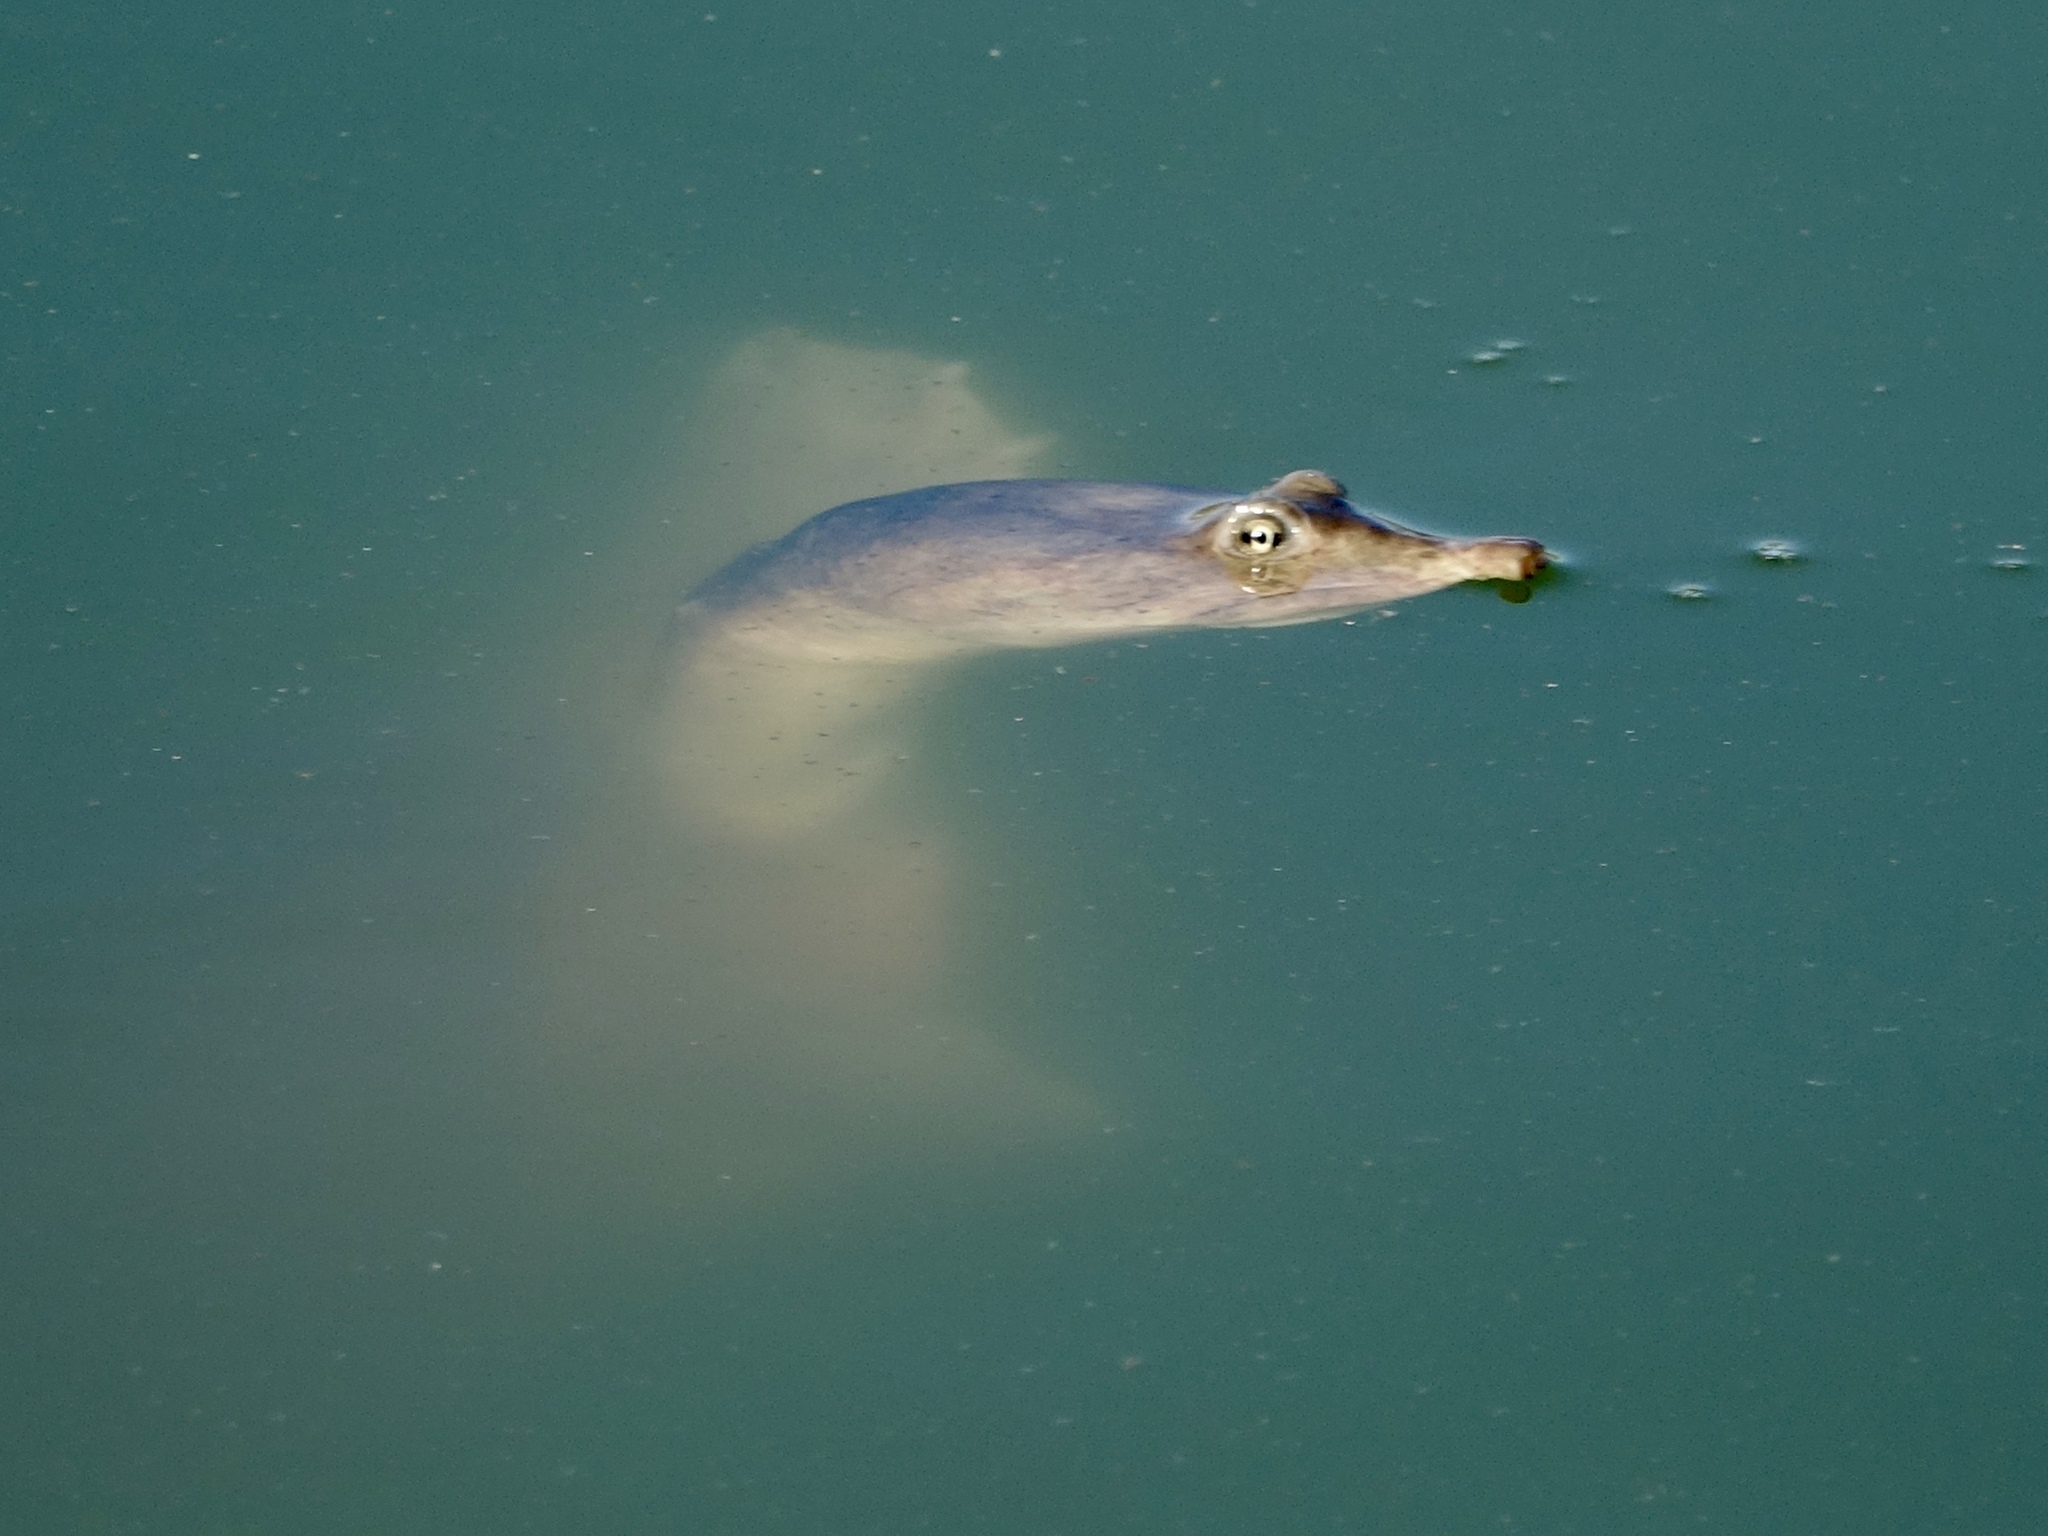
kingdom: Animalia
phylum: Chordata
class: Testudines
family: Trionychidae
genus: Apalone
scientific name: Apalone ferox
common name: Florida softshell turtle
